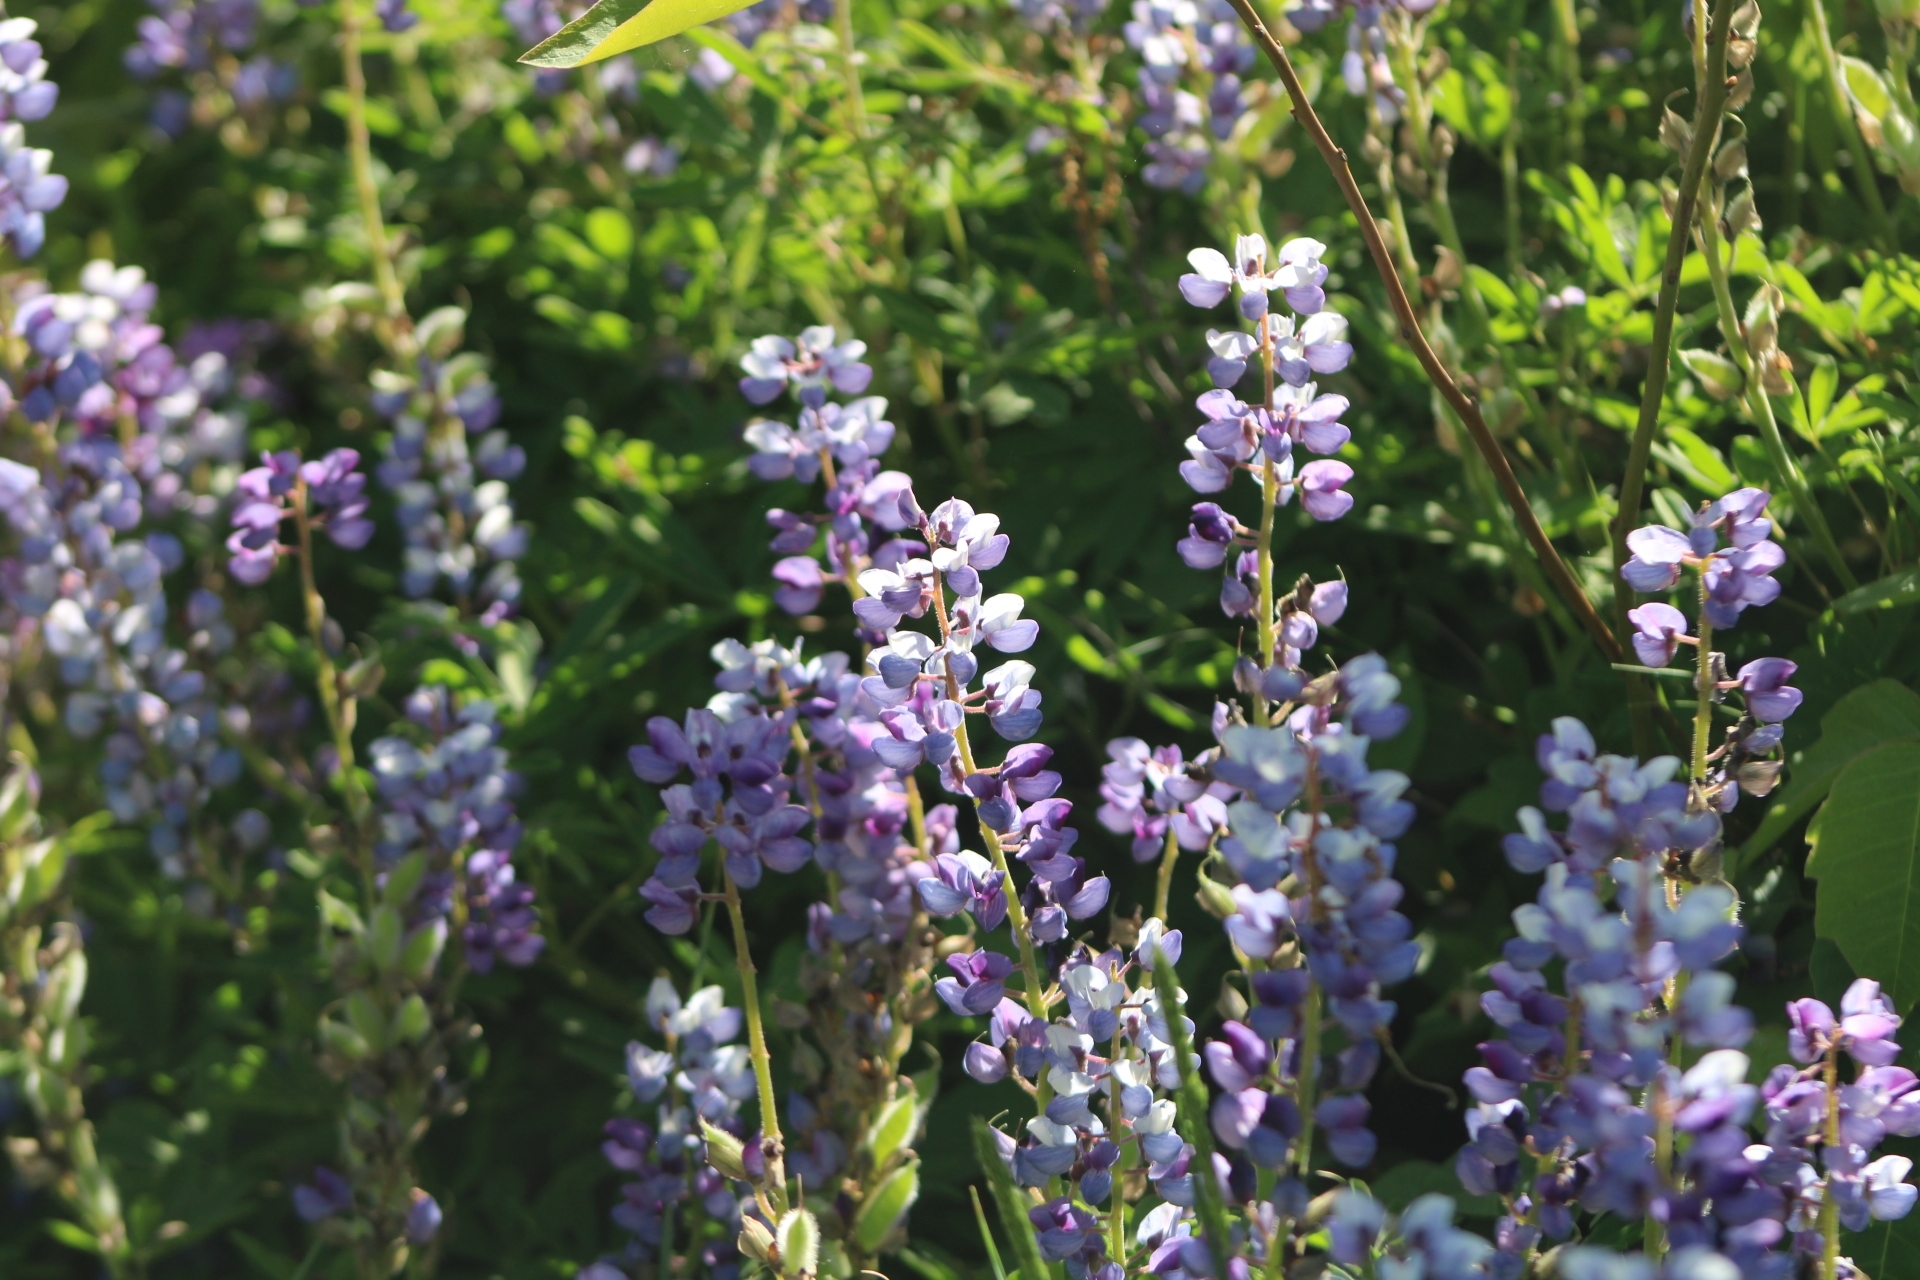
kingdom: Plantae
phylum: Tracheophyta
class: Magnoliopsida
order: Fabales
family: Fabaceae
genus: Lupinus
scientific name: Lupinus perennis
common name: Sundial lupine
